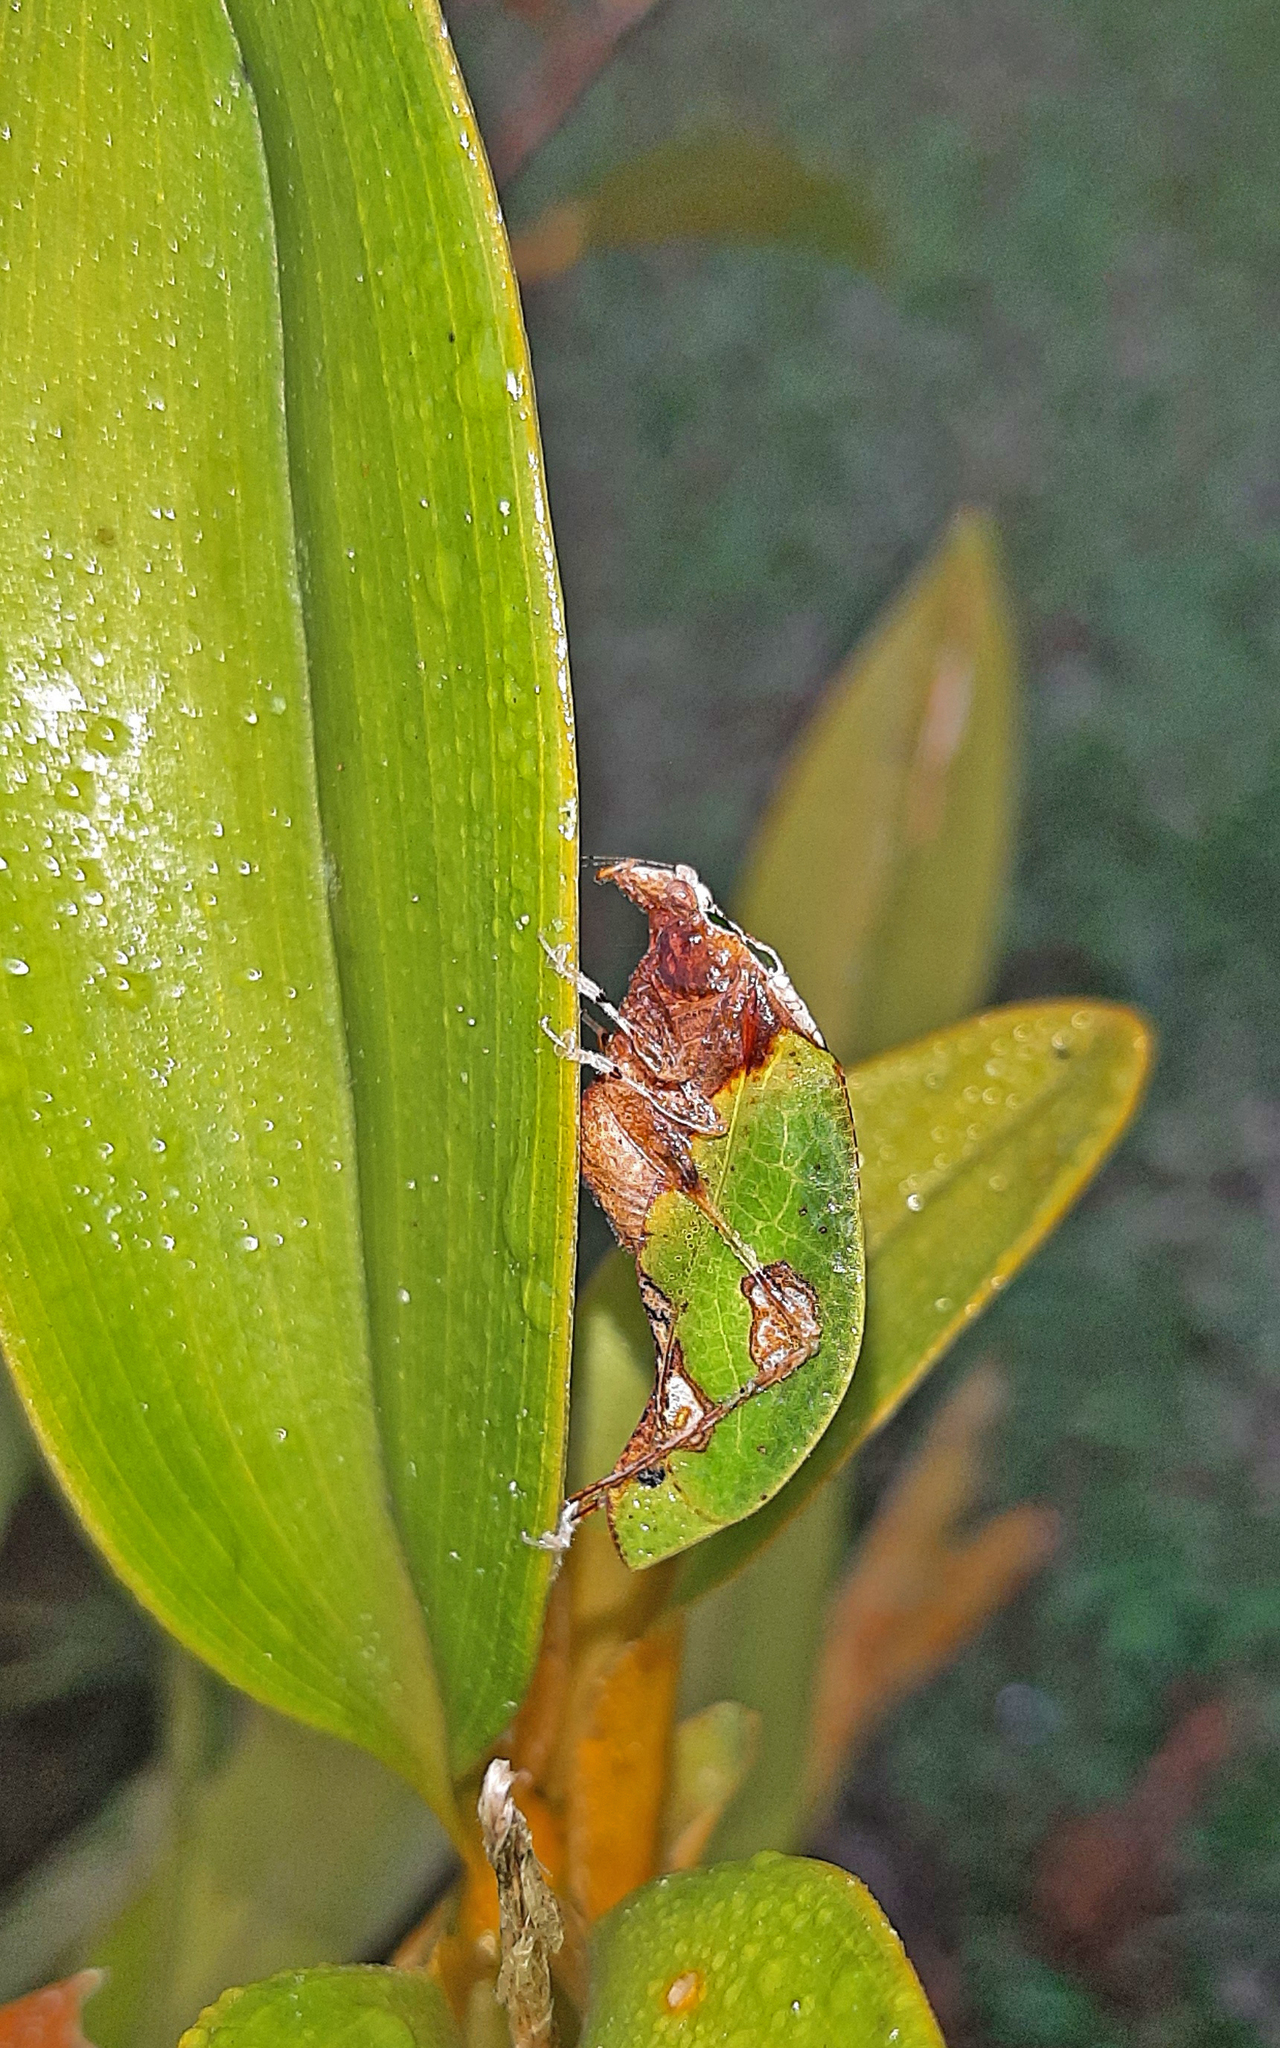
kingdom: Animalia
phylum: Arthropoda
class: Insecta
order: Orthoptera
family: Tettigoniidae
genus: Pycnopalpa
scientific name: Pycnopalpa bicordata
